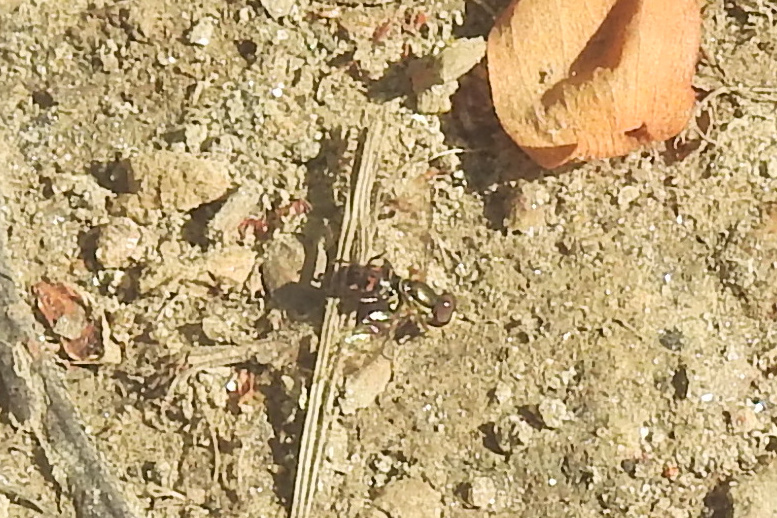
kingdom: Animalia
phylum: Arthropoda
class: Insecta
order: Diptera
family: Syrphidae
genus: Toxomerus
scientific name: Toxomerus geminatus
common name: Eastern calligrapher
